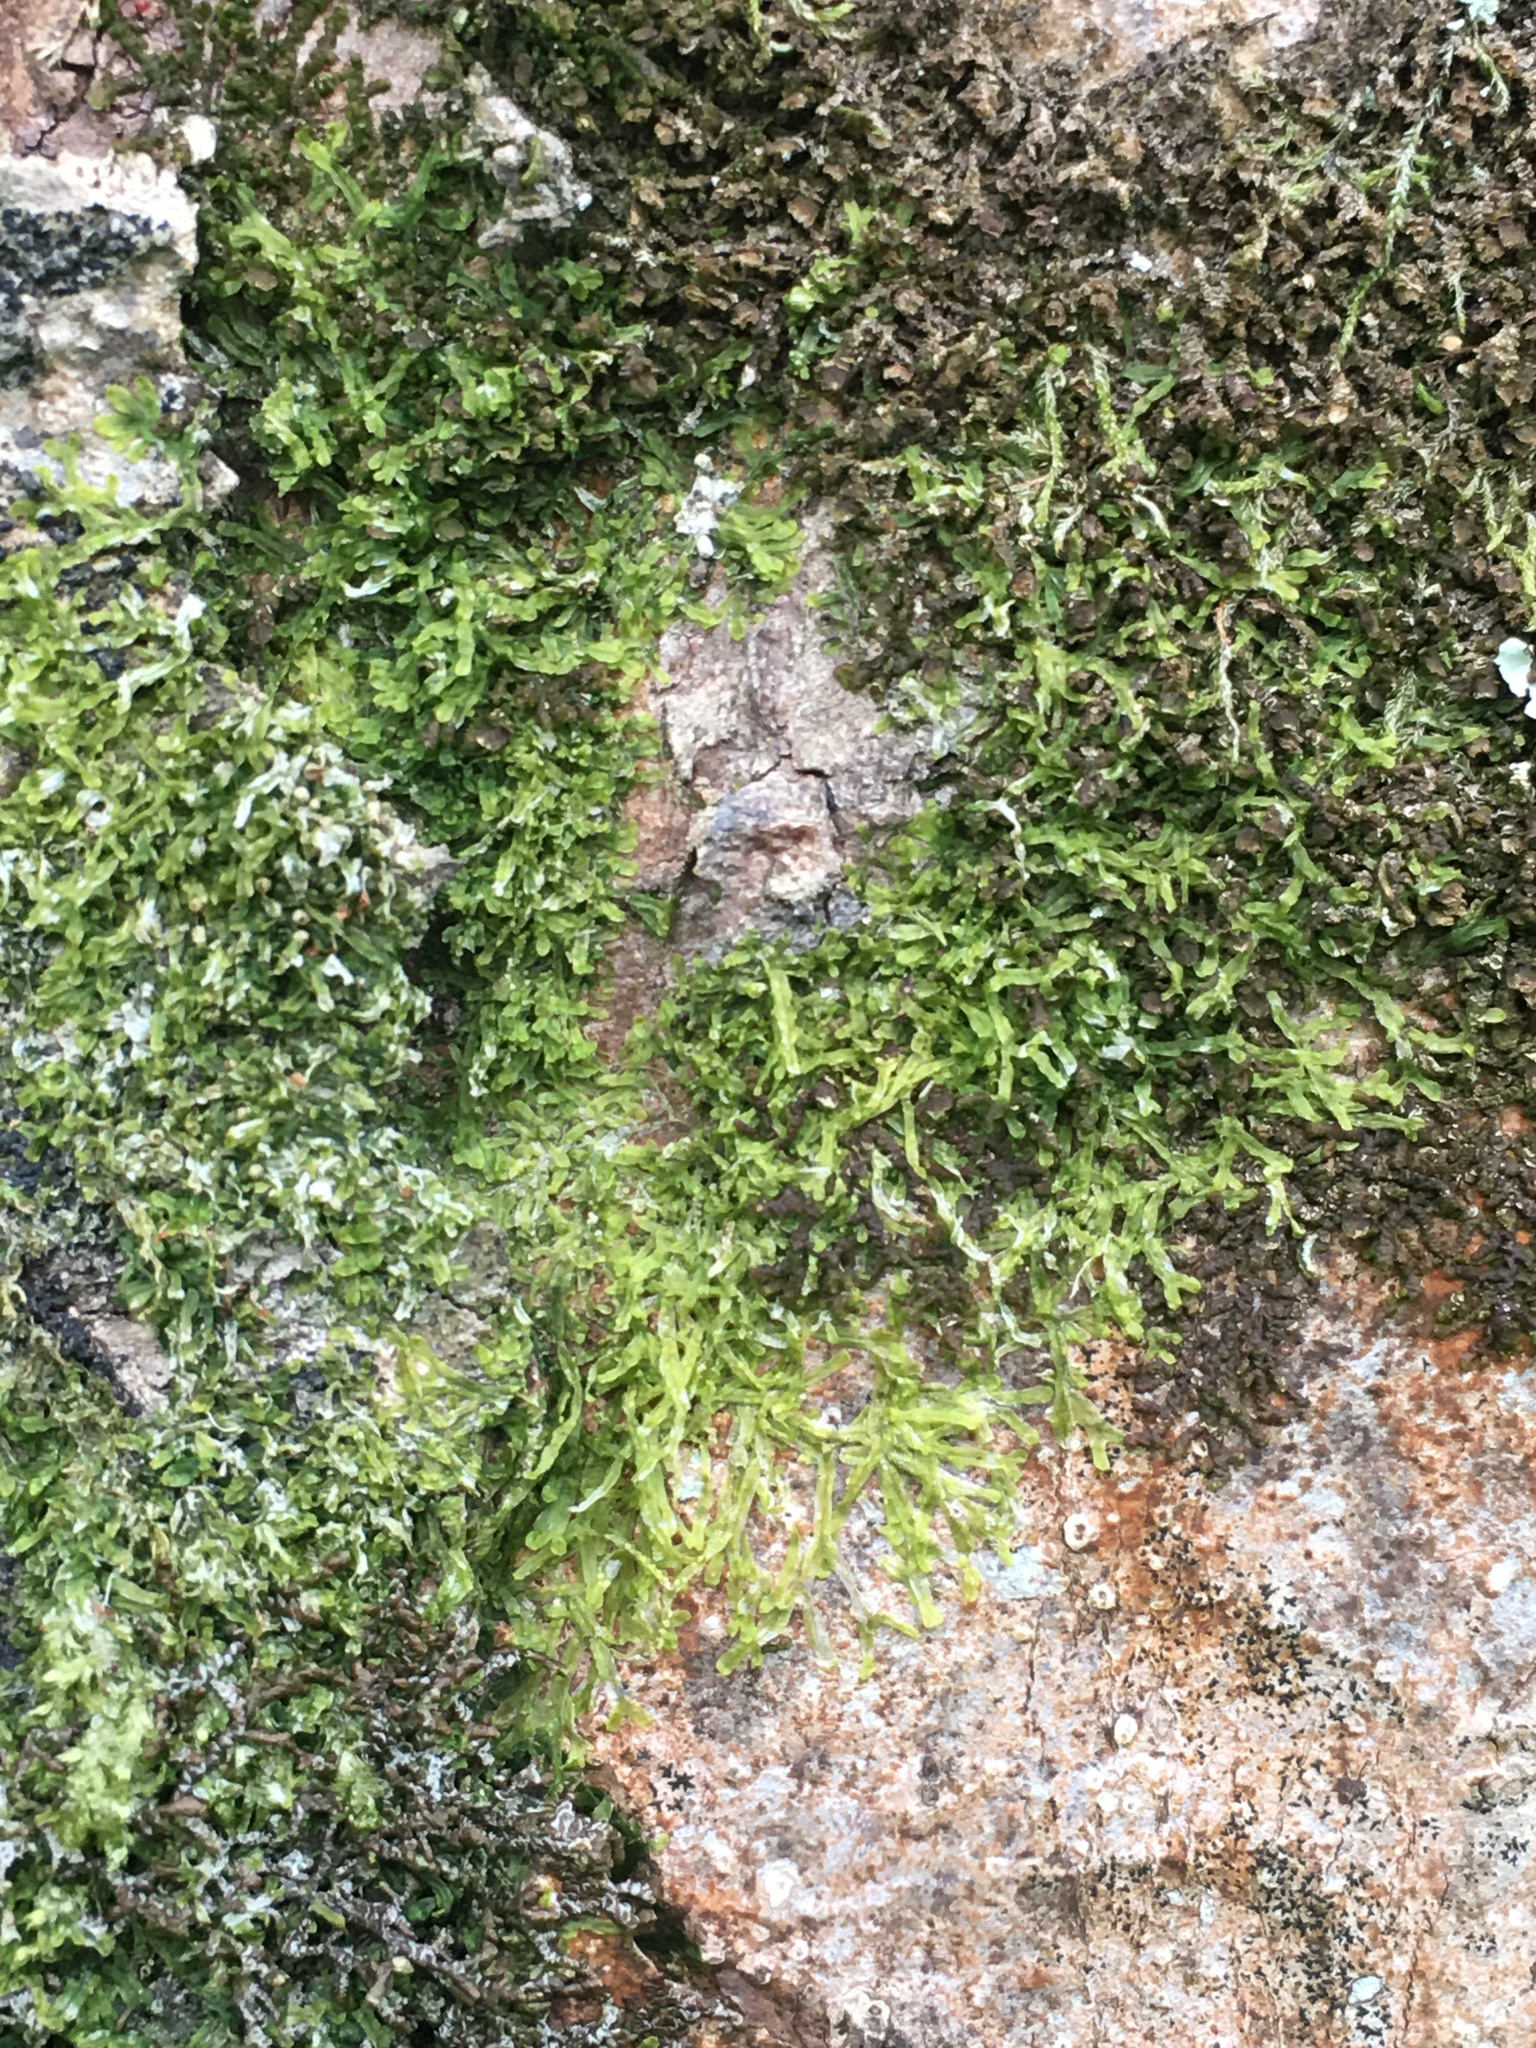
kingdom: Plantae
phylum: Marchantiophyta
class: Jungermanniopsida
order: Metzgeriales
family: Metzgeriaceae
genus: Metzgeria
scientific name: Metzgeria furcata
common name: Forked veilwort
